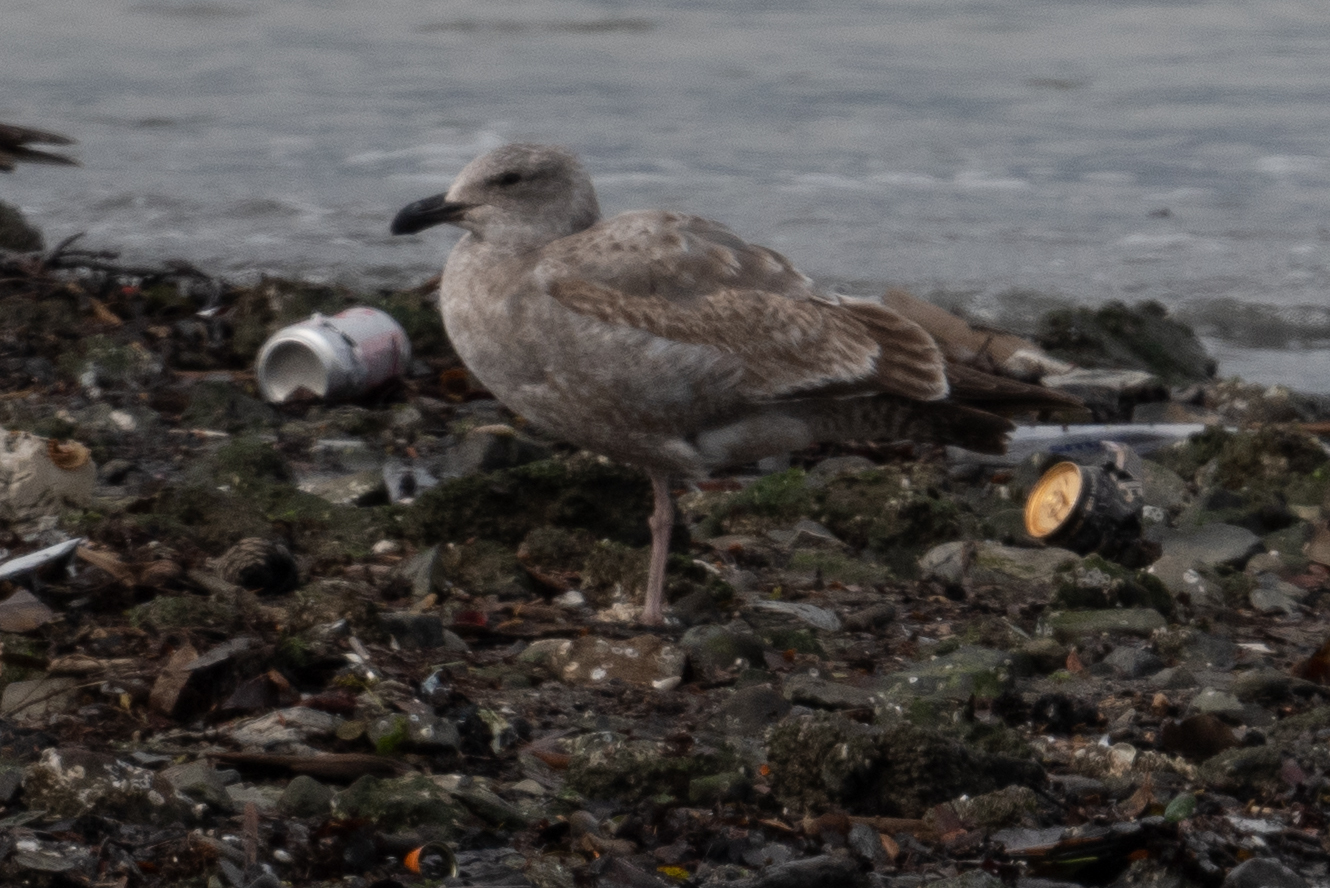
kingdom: Animalia
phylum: Chordata
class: Aves
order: Charadriiformes
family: Laridae
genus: Larus
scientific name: Larus occidentalis
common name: Western gull
